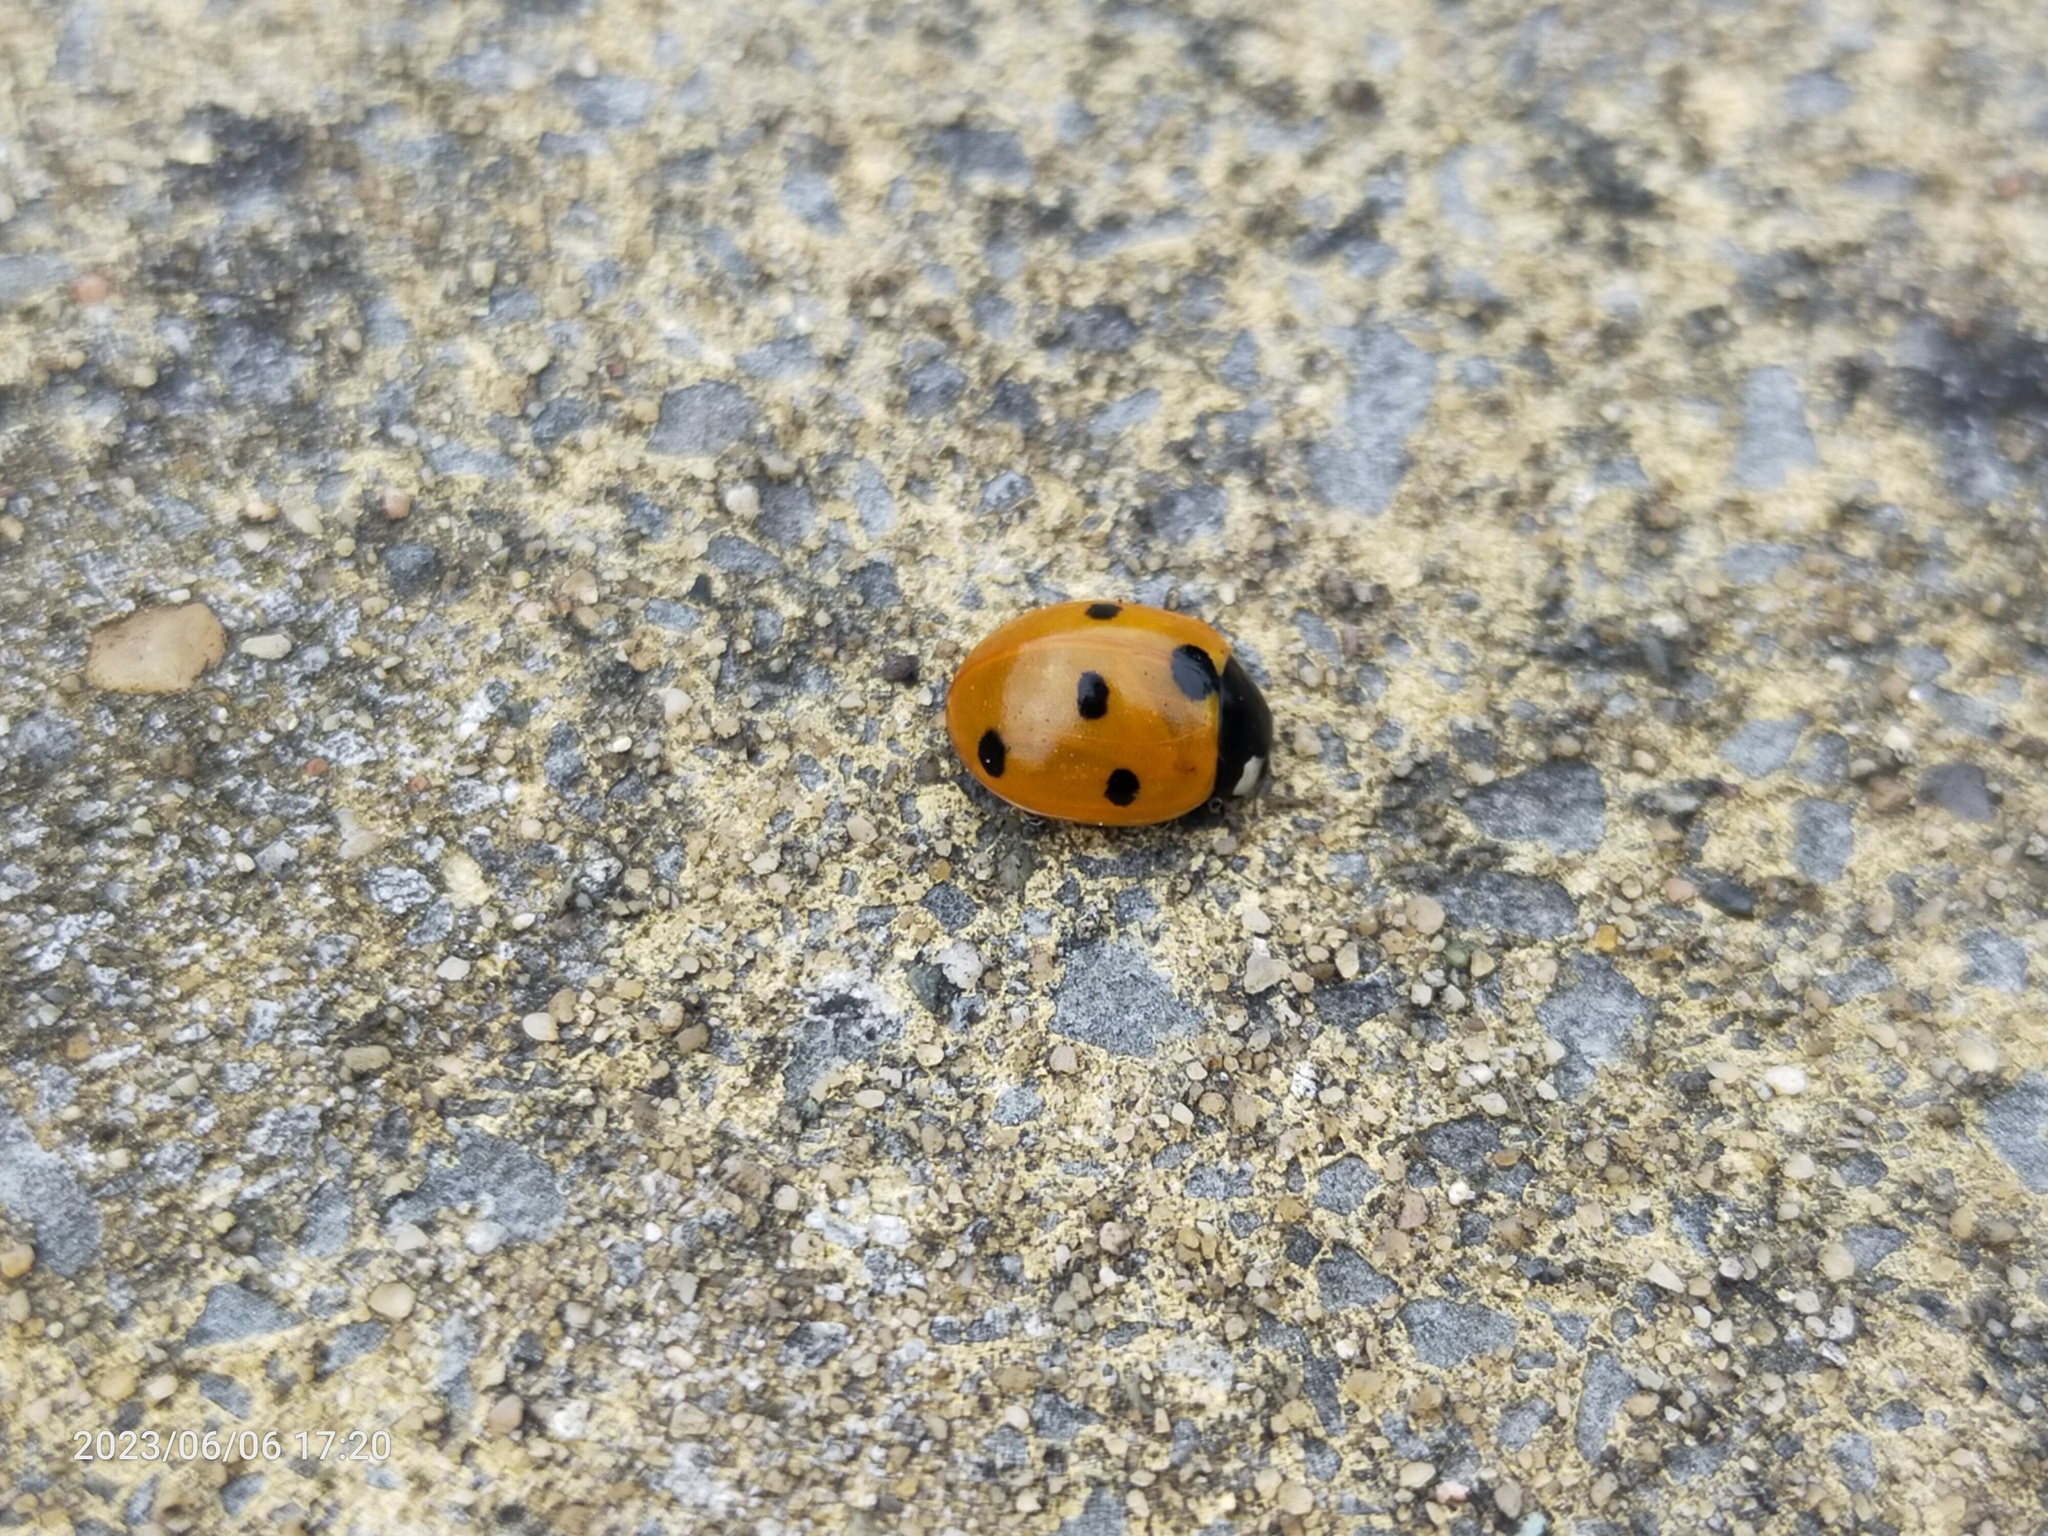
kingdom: Animalia
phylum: Arthropoda
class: Insecta
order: Coleoptera
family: Coccinellidae
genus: Coccinella
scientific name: Coccinella septempunctata
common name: Sevenspotted lady beetle
